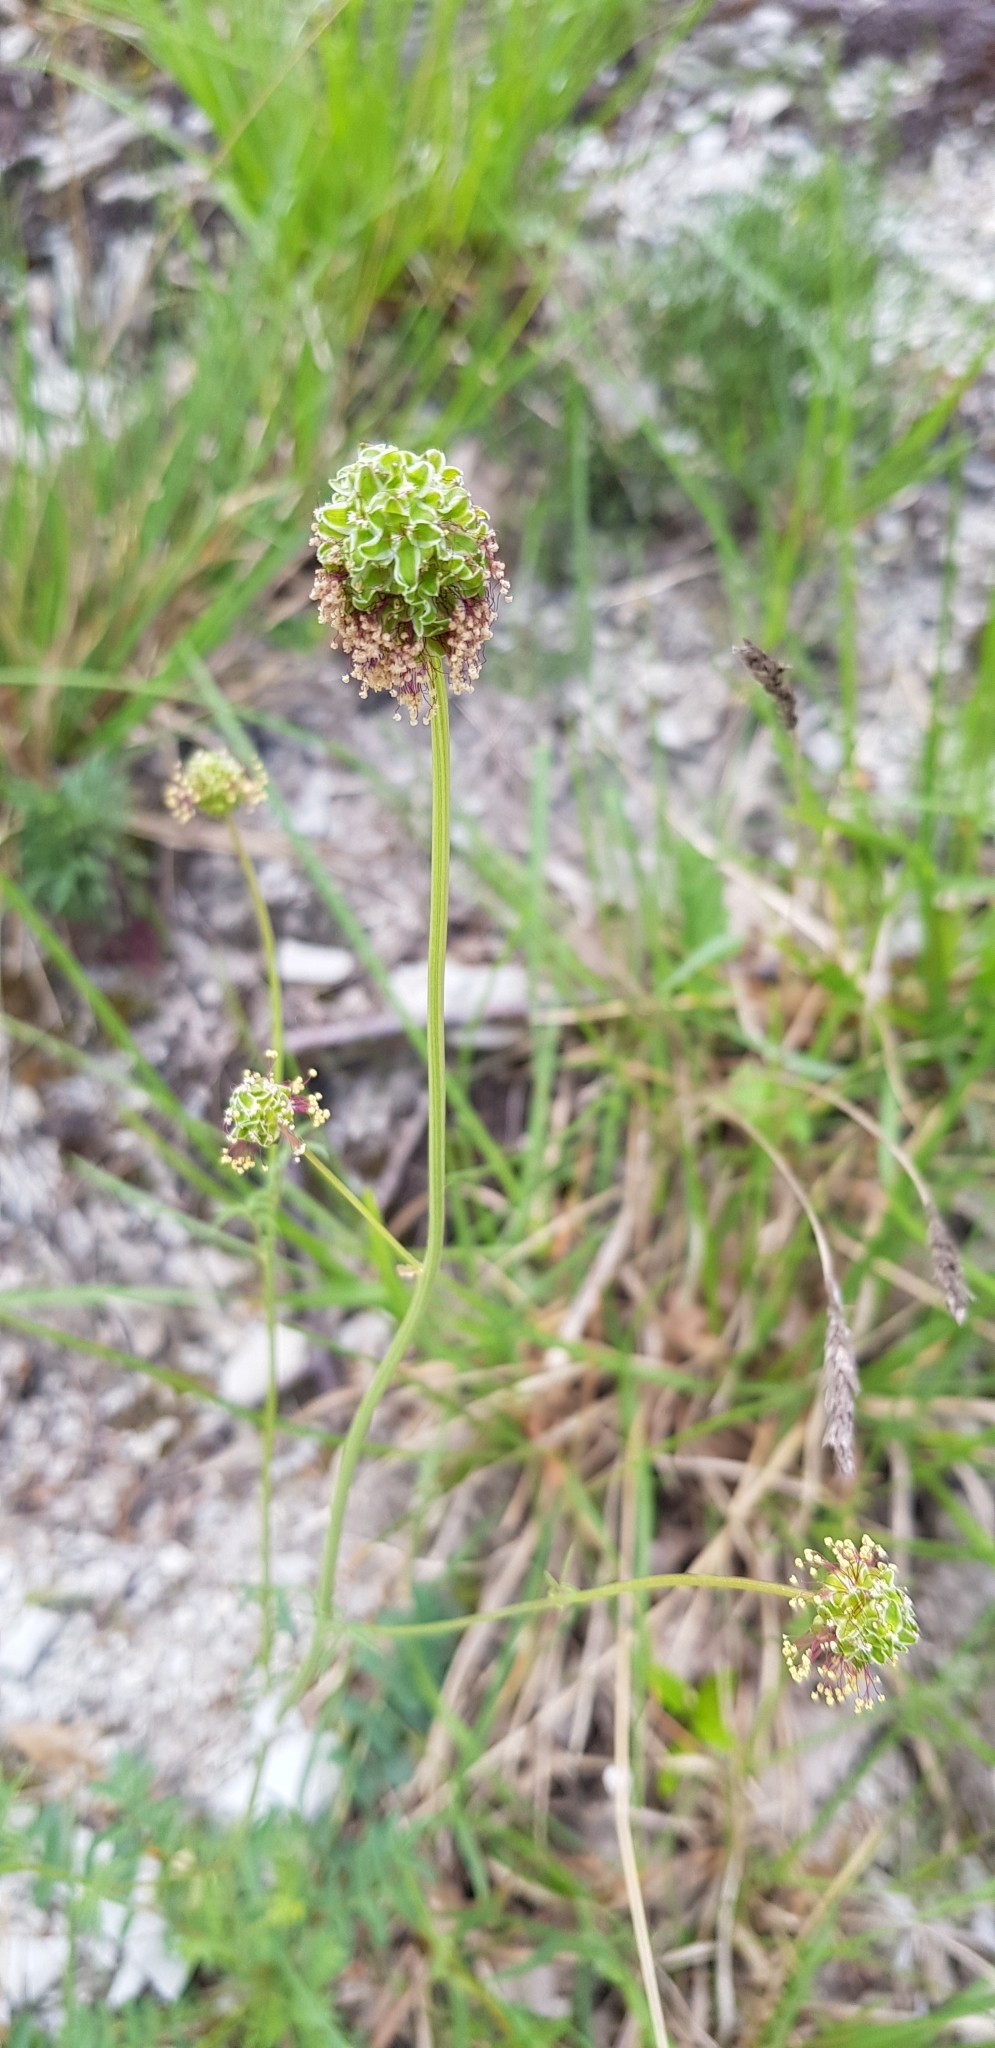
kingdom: Plantae
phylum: Tracheophyta
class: Magnoliopsida
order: Rosales
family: Rosaceae
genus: Poterium
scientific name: Poterium sanguisorba
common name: Salad burnet
